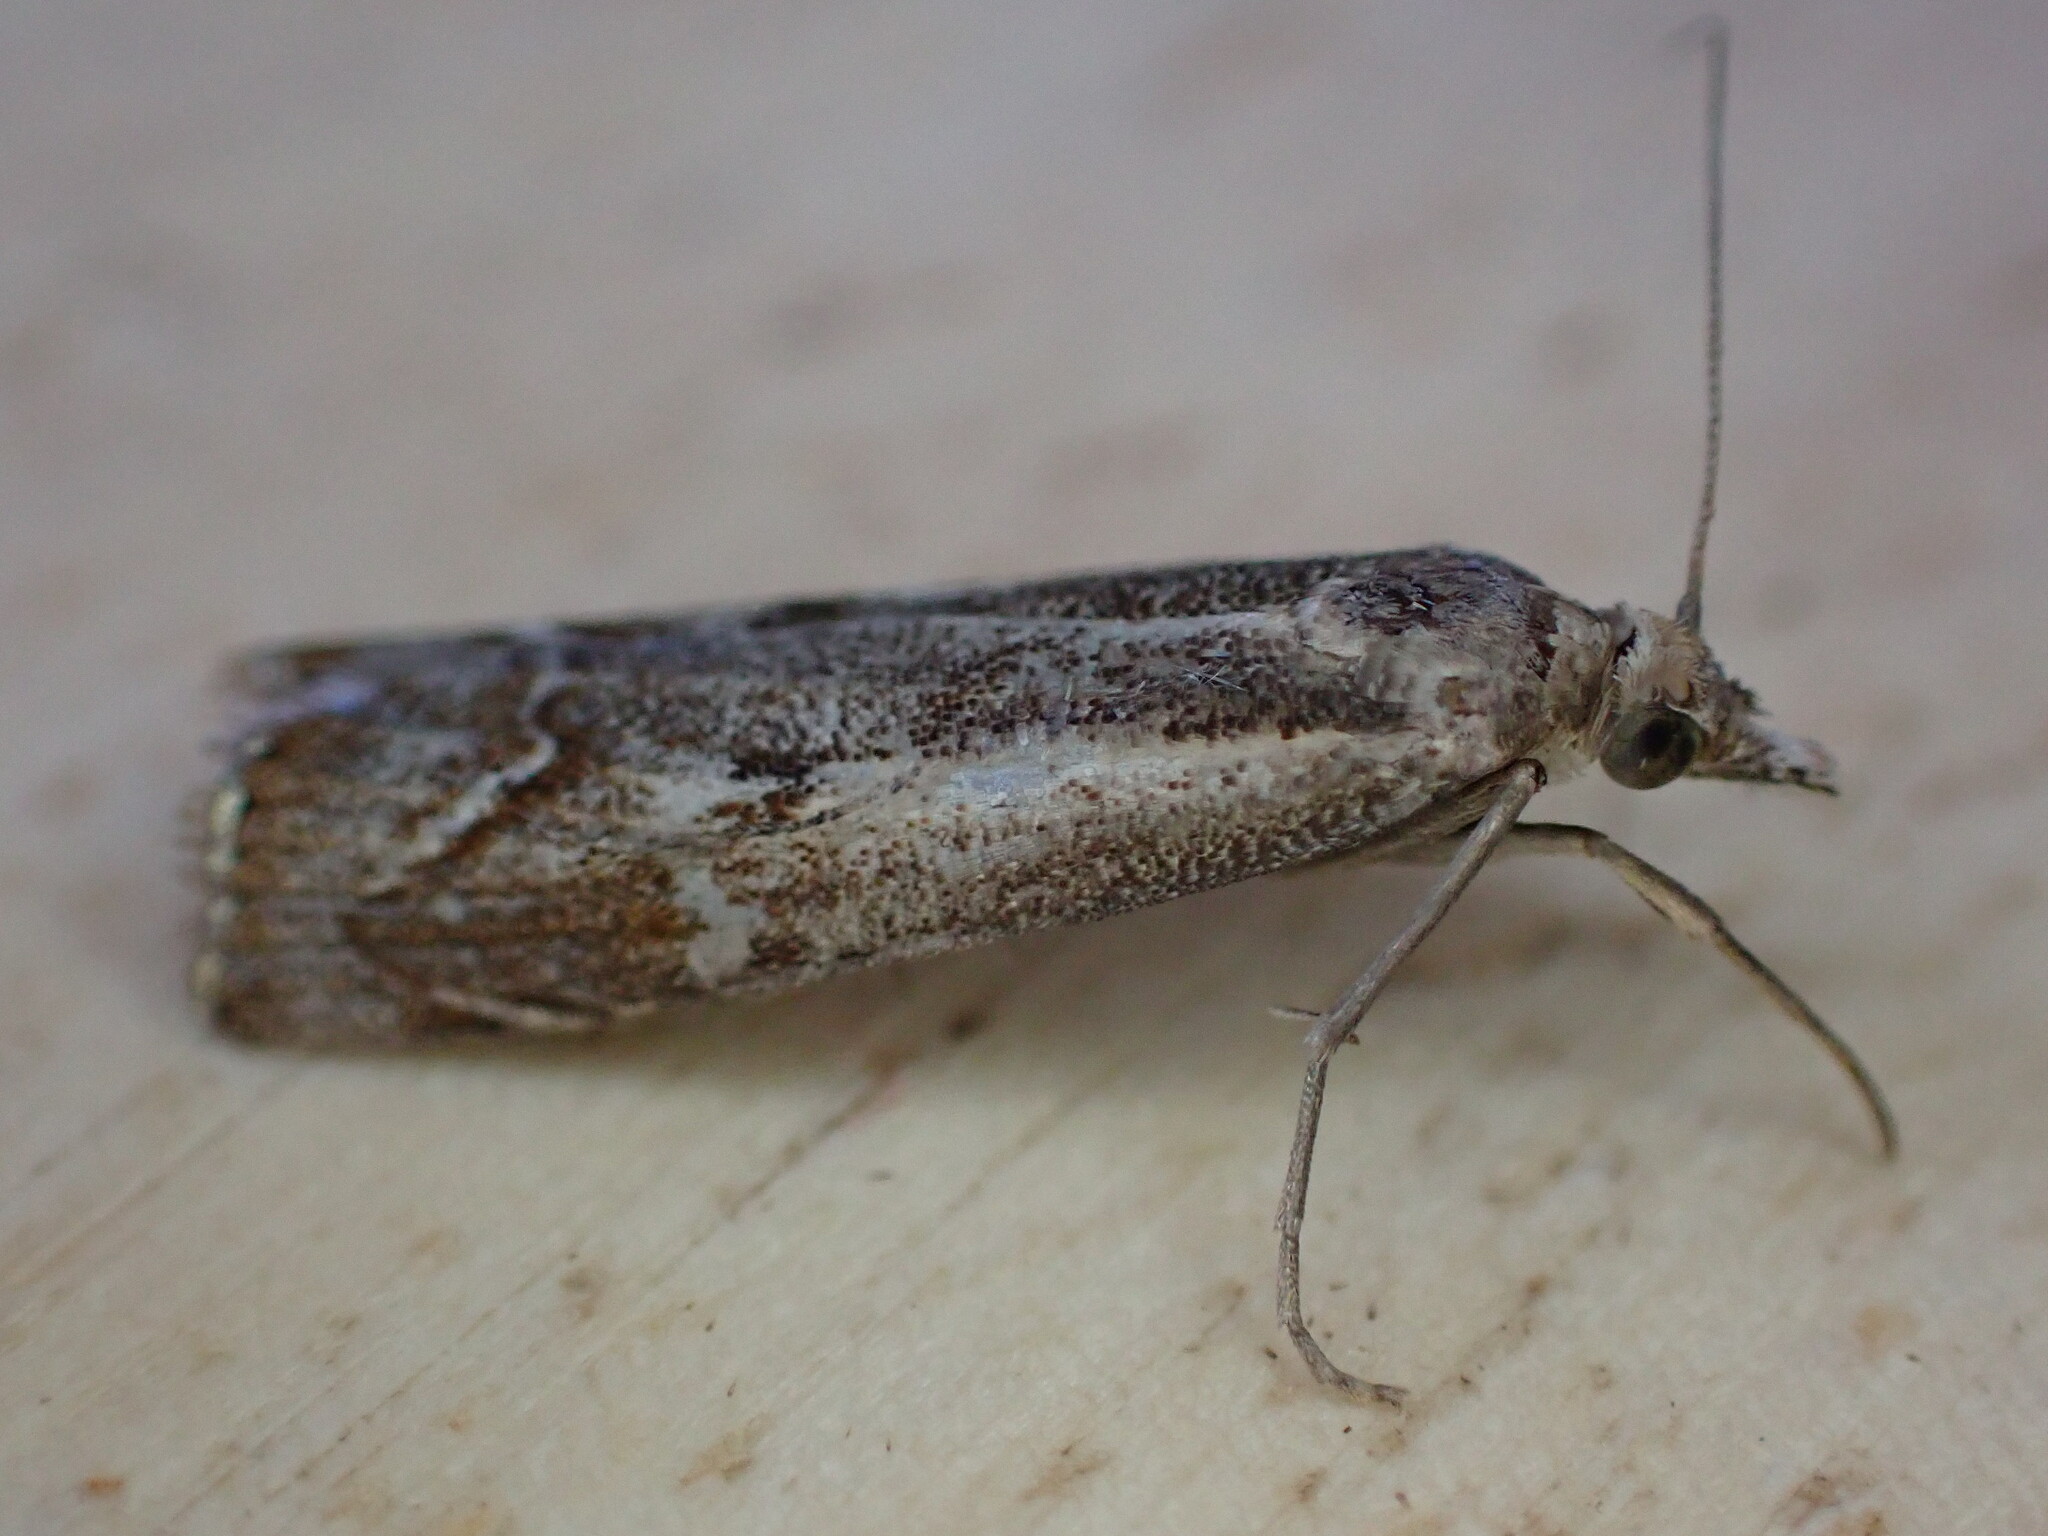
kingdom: Animalia
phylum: Arthropoda
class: Insecta
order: Lepidoptera
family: Crambidae
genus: Agriphila
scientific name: Agriphila geniculea
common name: Elbow-stripe grass-veneer
